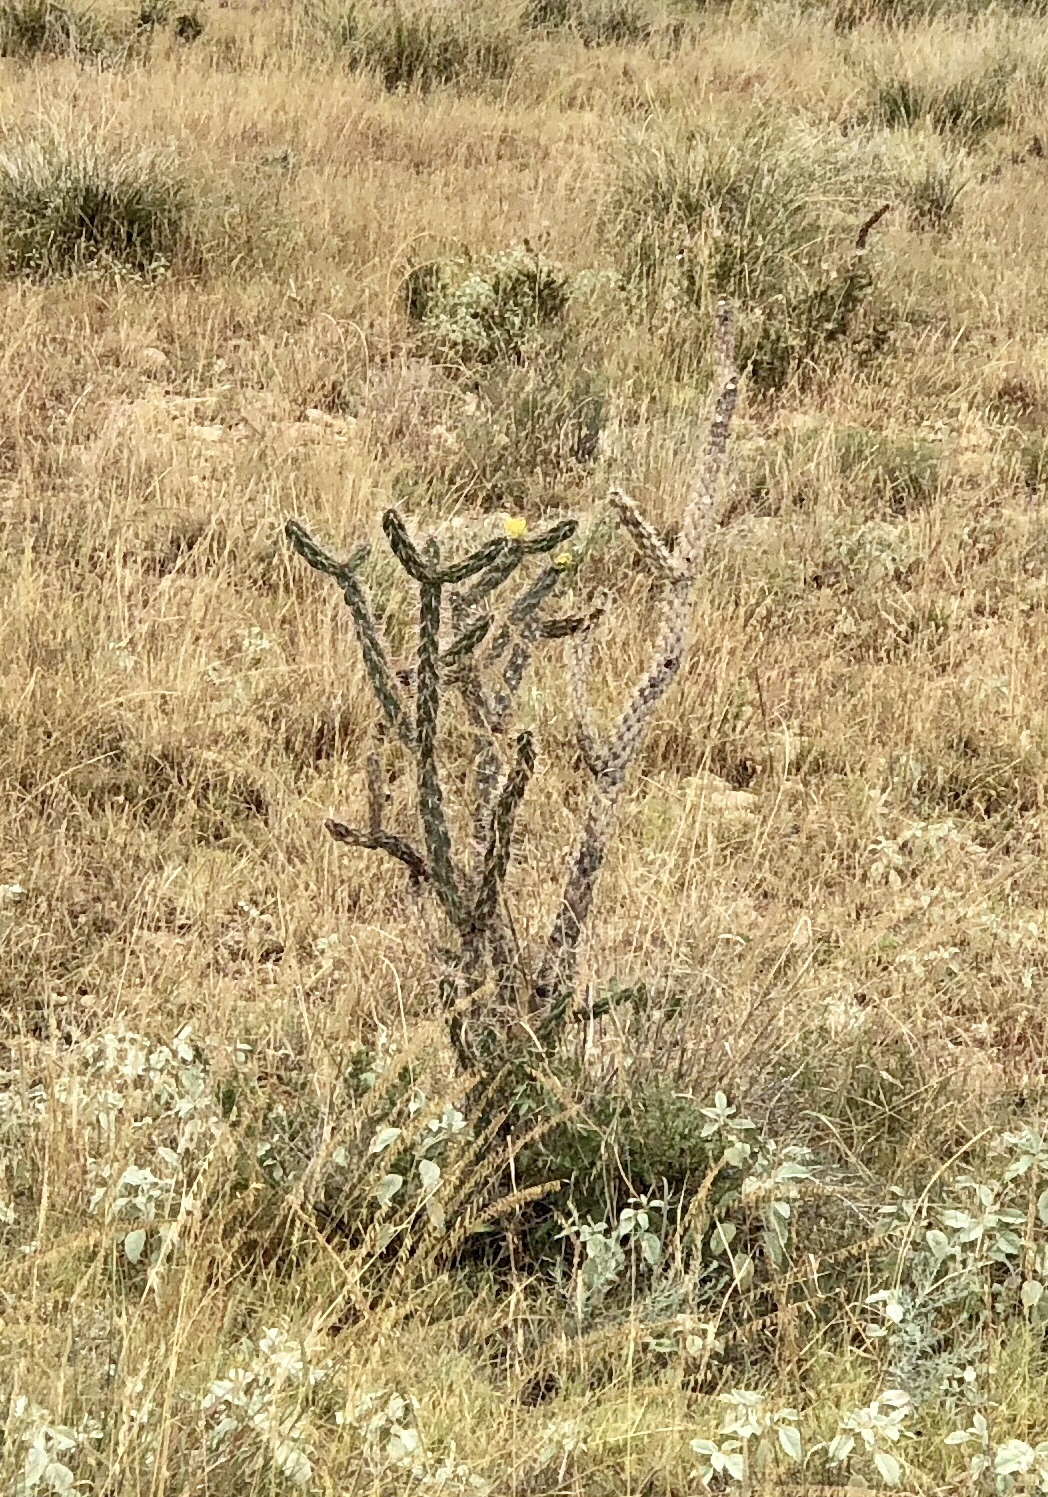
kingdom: Plantae
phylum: Tracheophyta
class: Magnoliopsida
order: Caryophyllales
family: Cactaceae
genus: Cylindropuntia
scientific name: Cylindropuntia imbricata
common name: Candelabrum cactus
